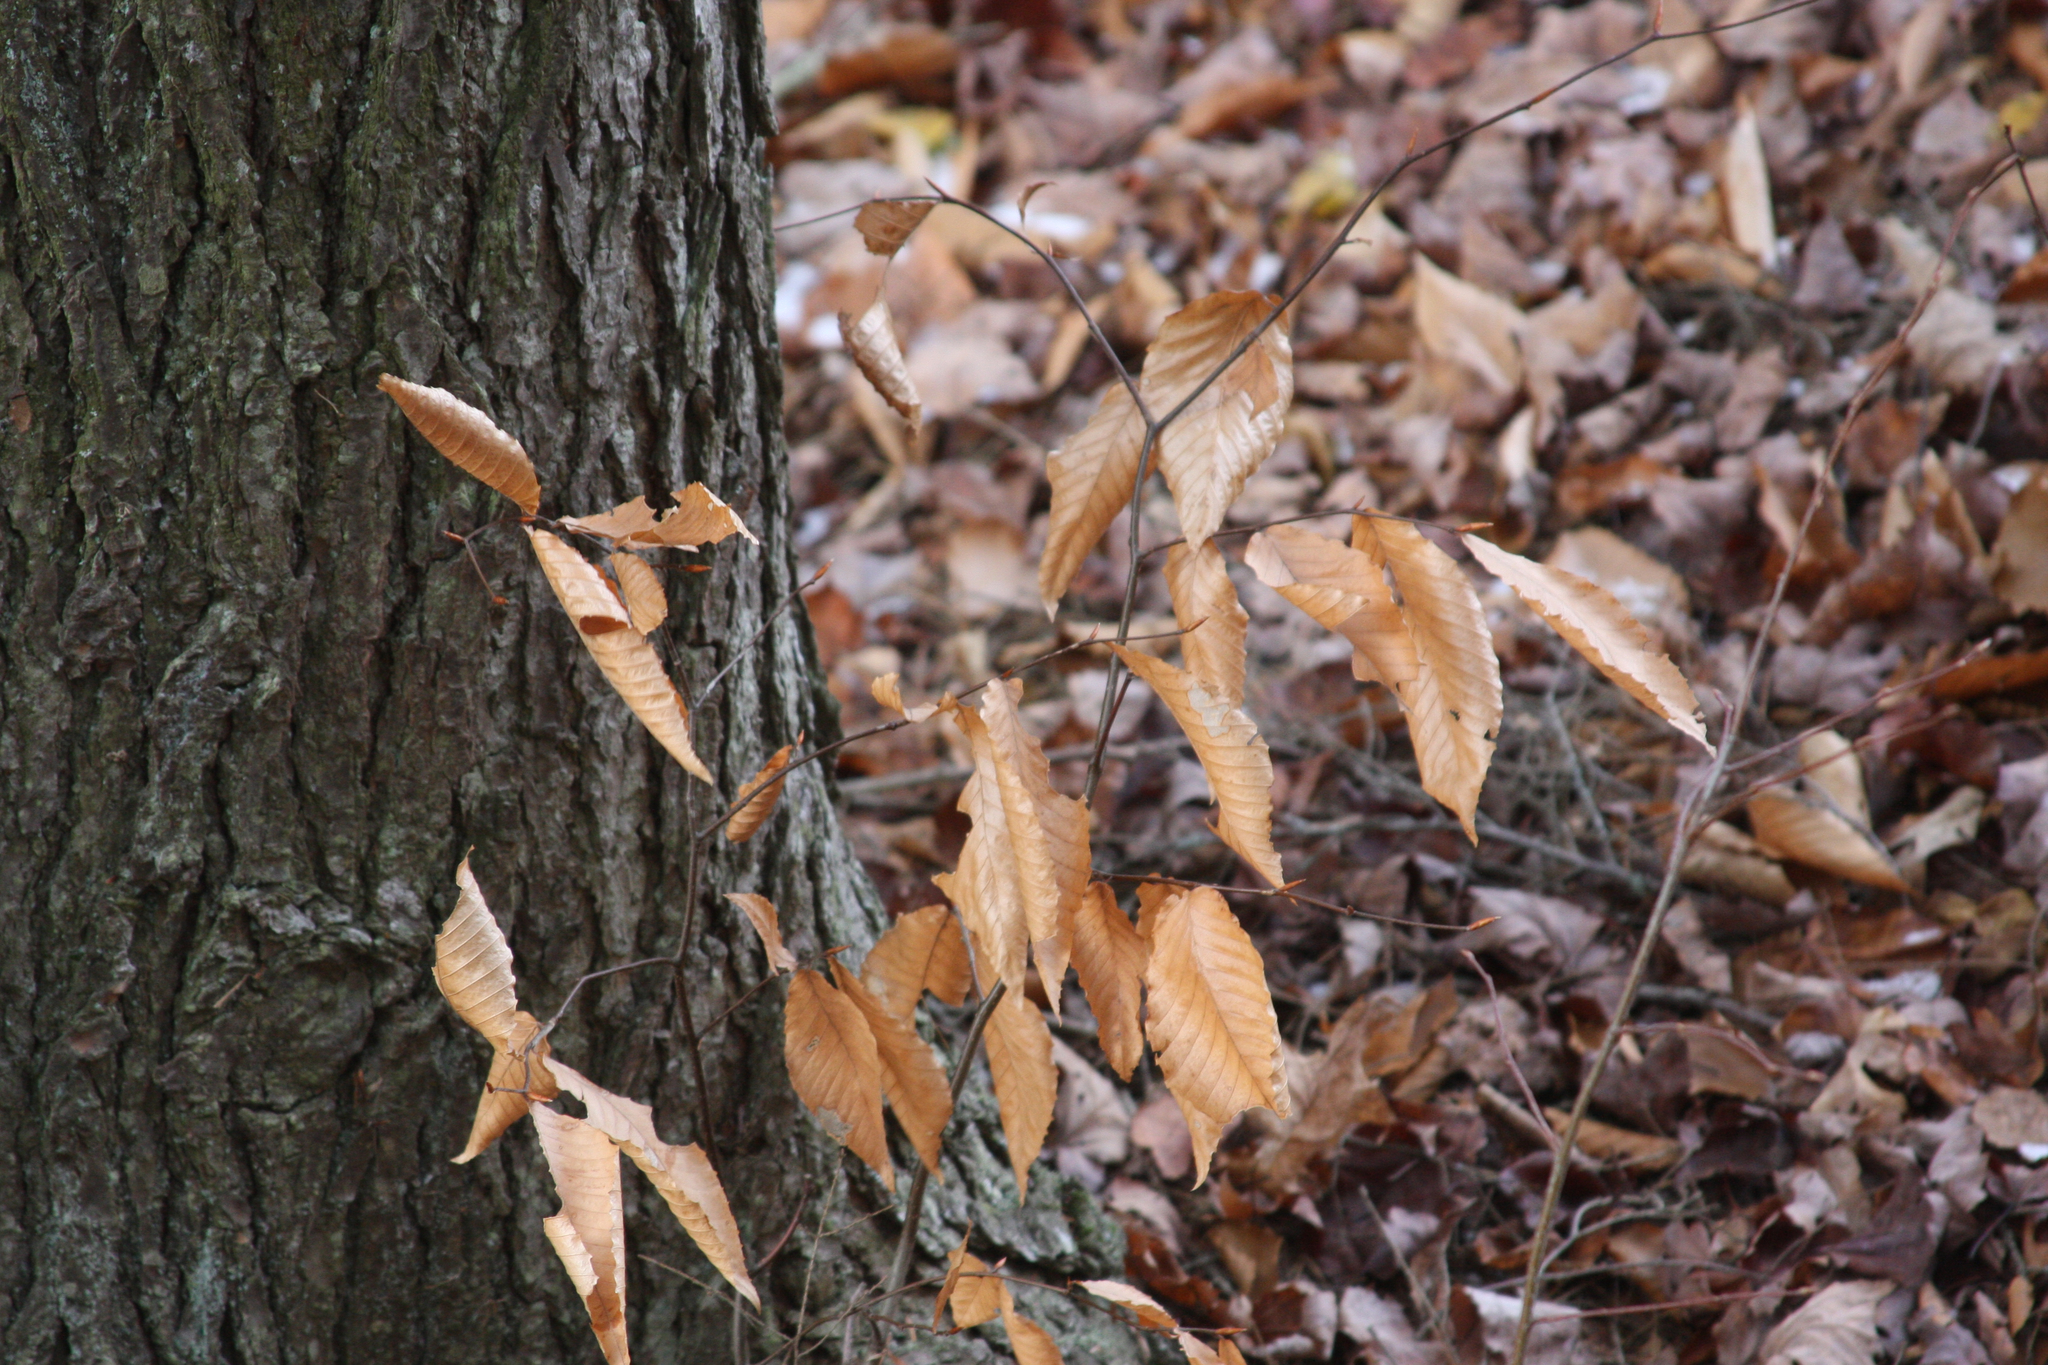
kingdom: Plantae
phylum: Tracheophyta
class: Magnoliopsida
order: Fagales
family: Fagaceae
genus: Fagus
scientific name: Fagus grandifolia
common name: American beech
